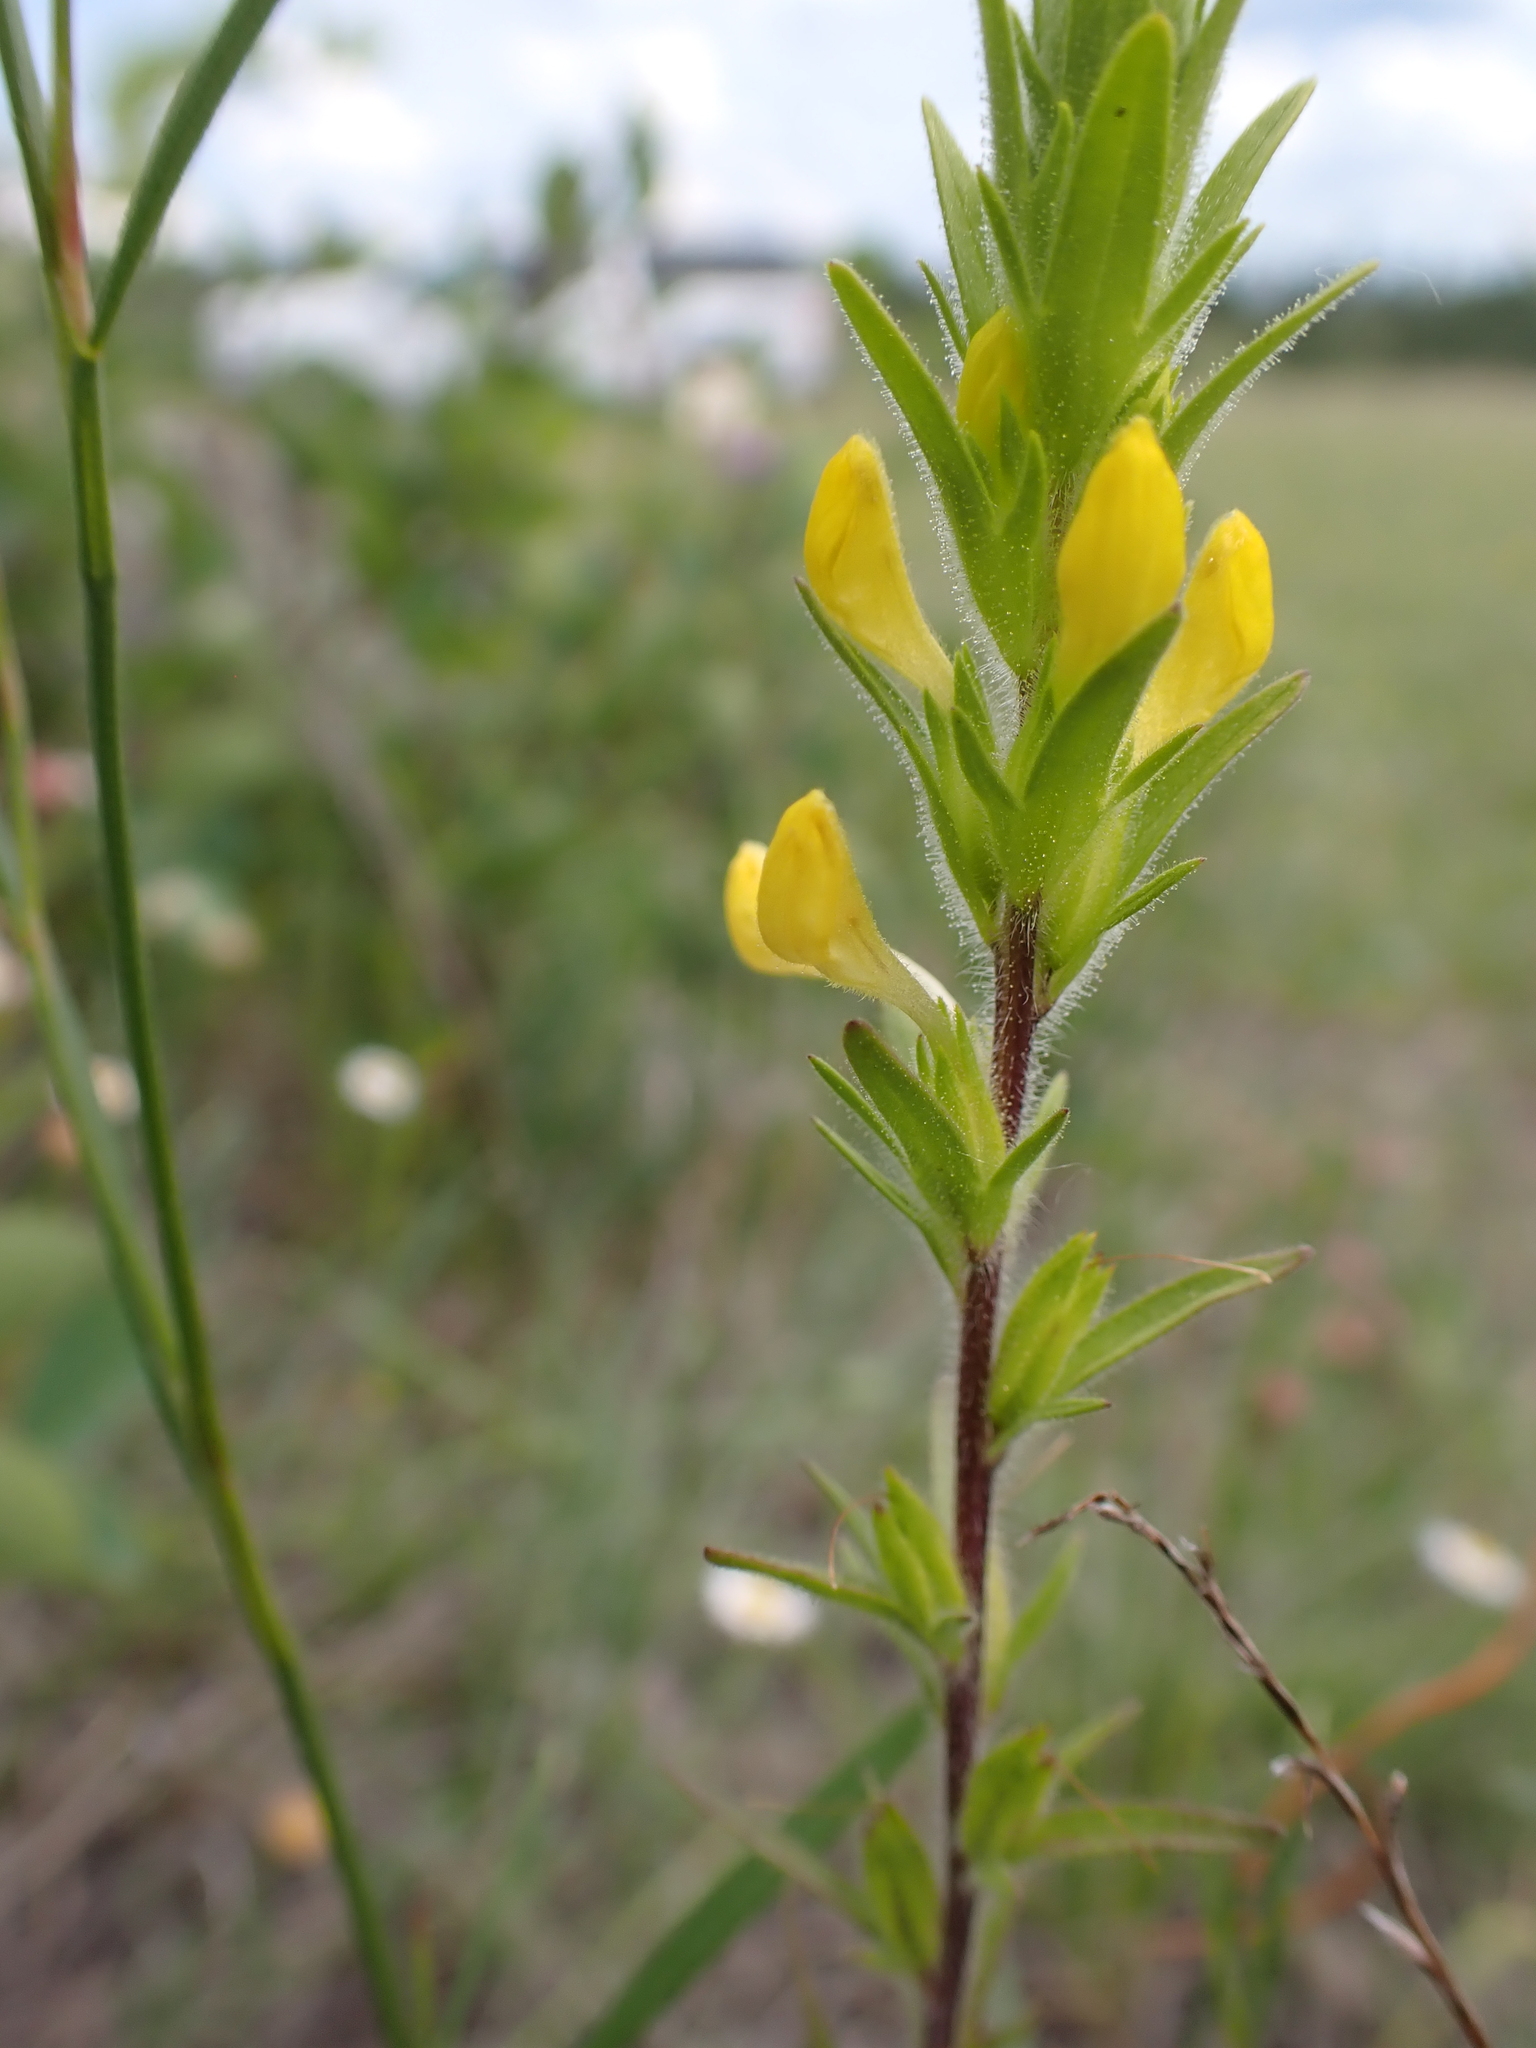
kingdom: Plantae
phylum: Tracheophyta
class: Magnoliopsida
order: Lamiales
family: Orobanchaceae
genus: Orthocarpus
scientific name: Orthocarpus luteus
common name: Golden-tongue owl's-clover
